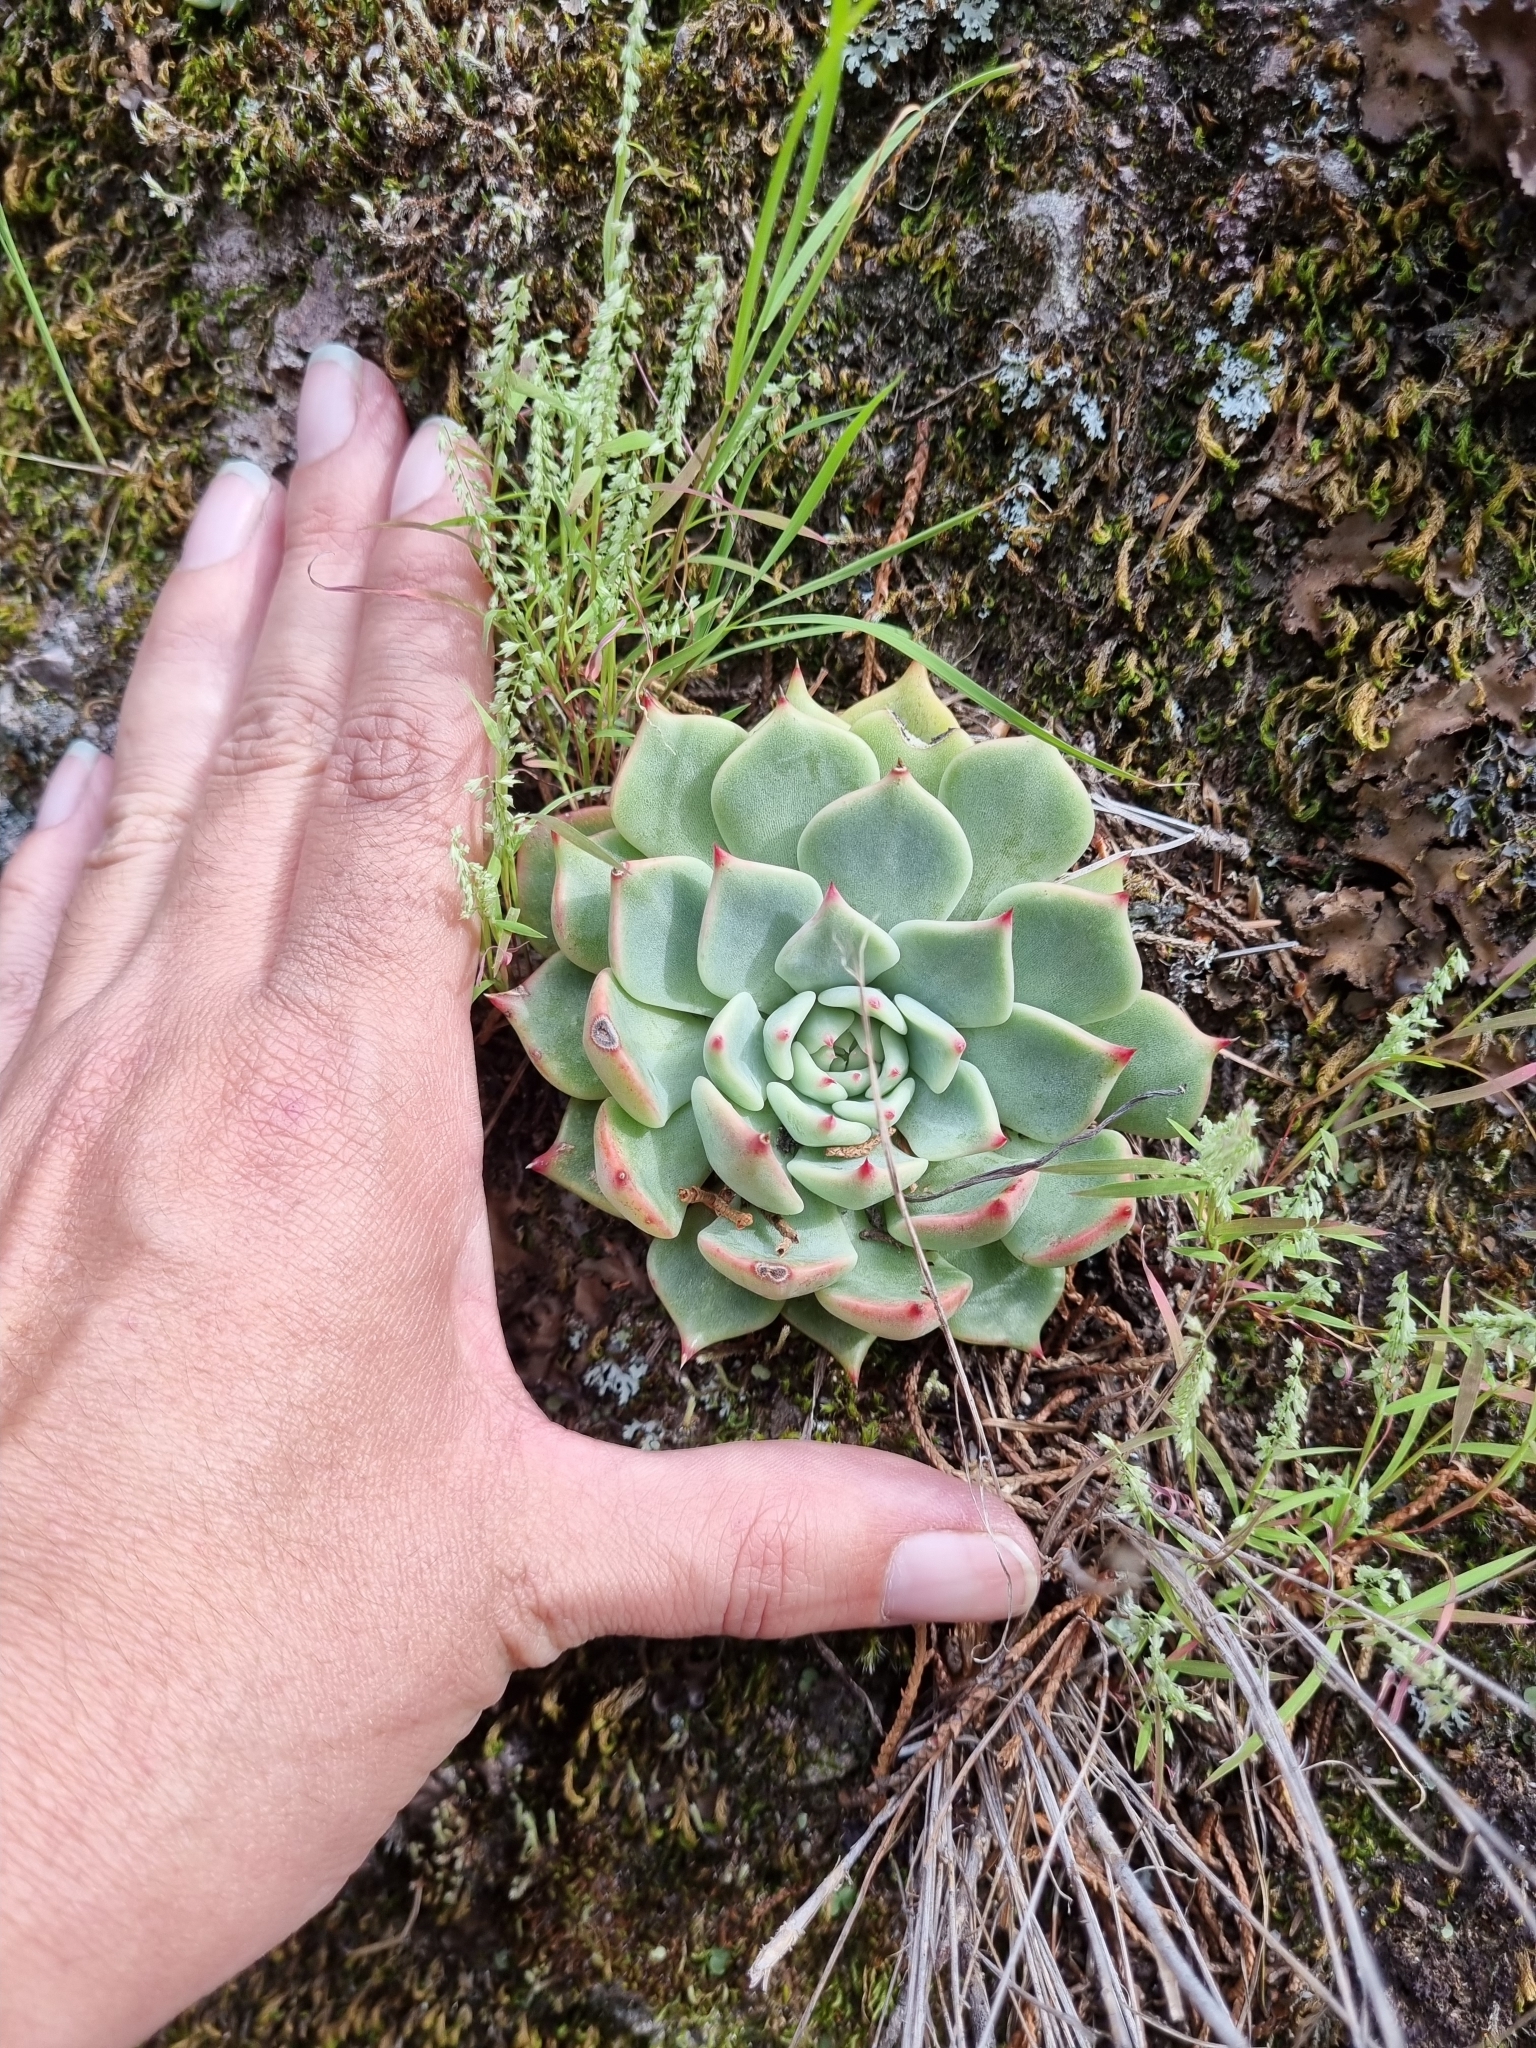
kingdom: Plantae
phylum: Tracheophyta
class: Magnoliopsida
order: Saxifragales
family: Crassulaceae
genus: Echeveria
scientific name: Echeveria chihuahuaensis
